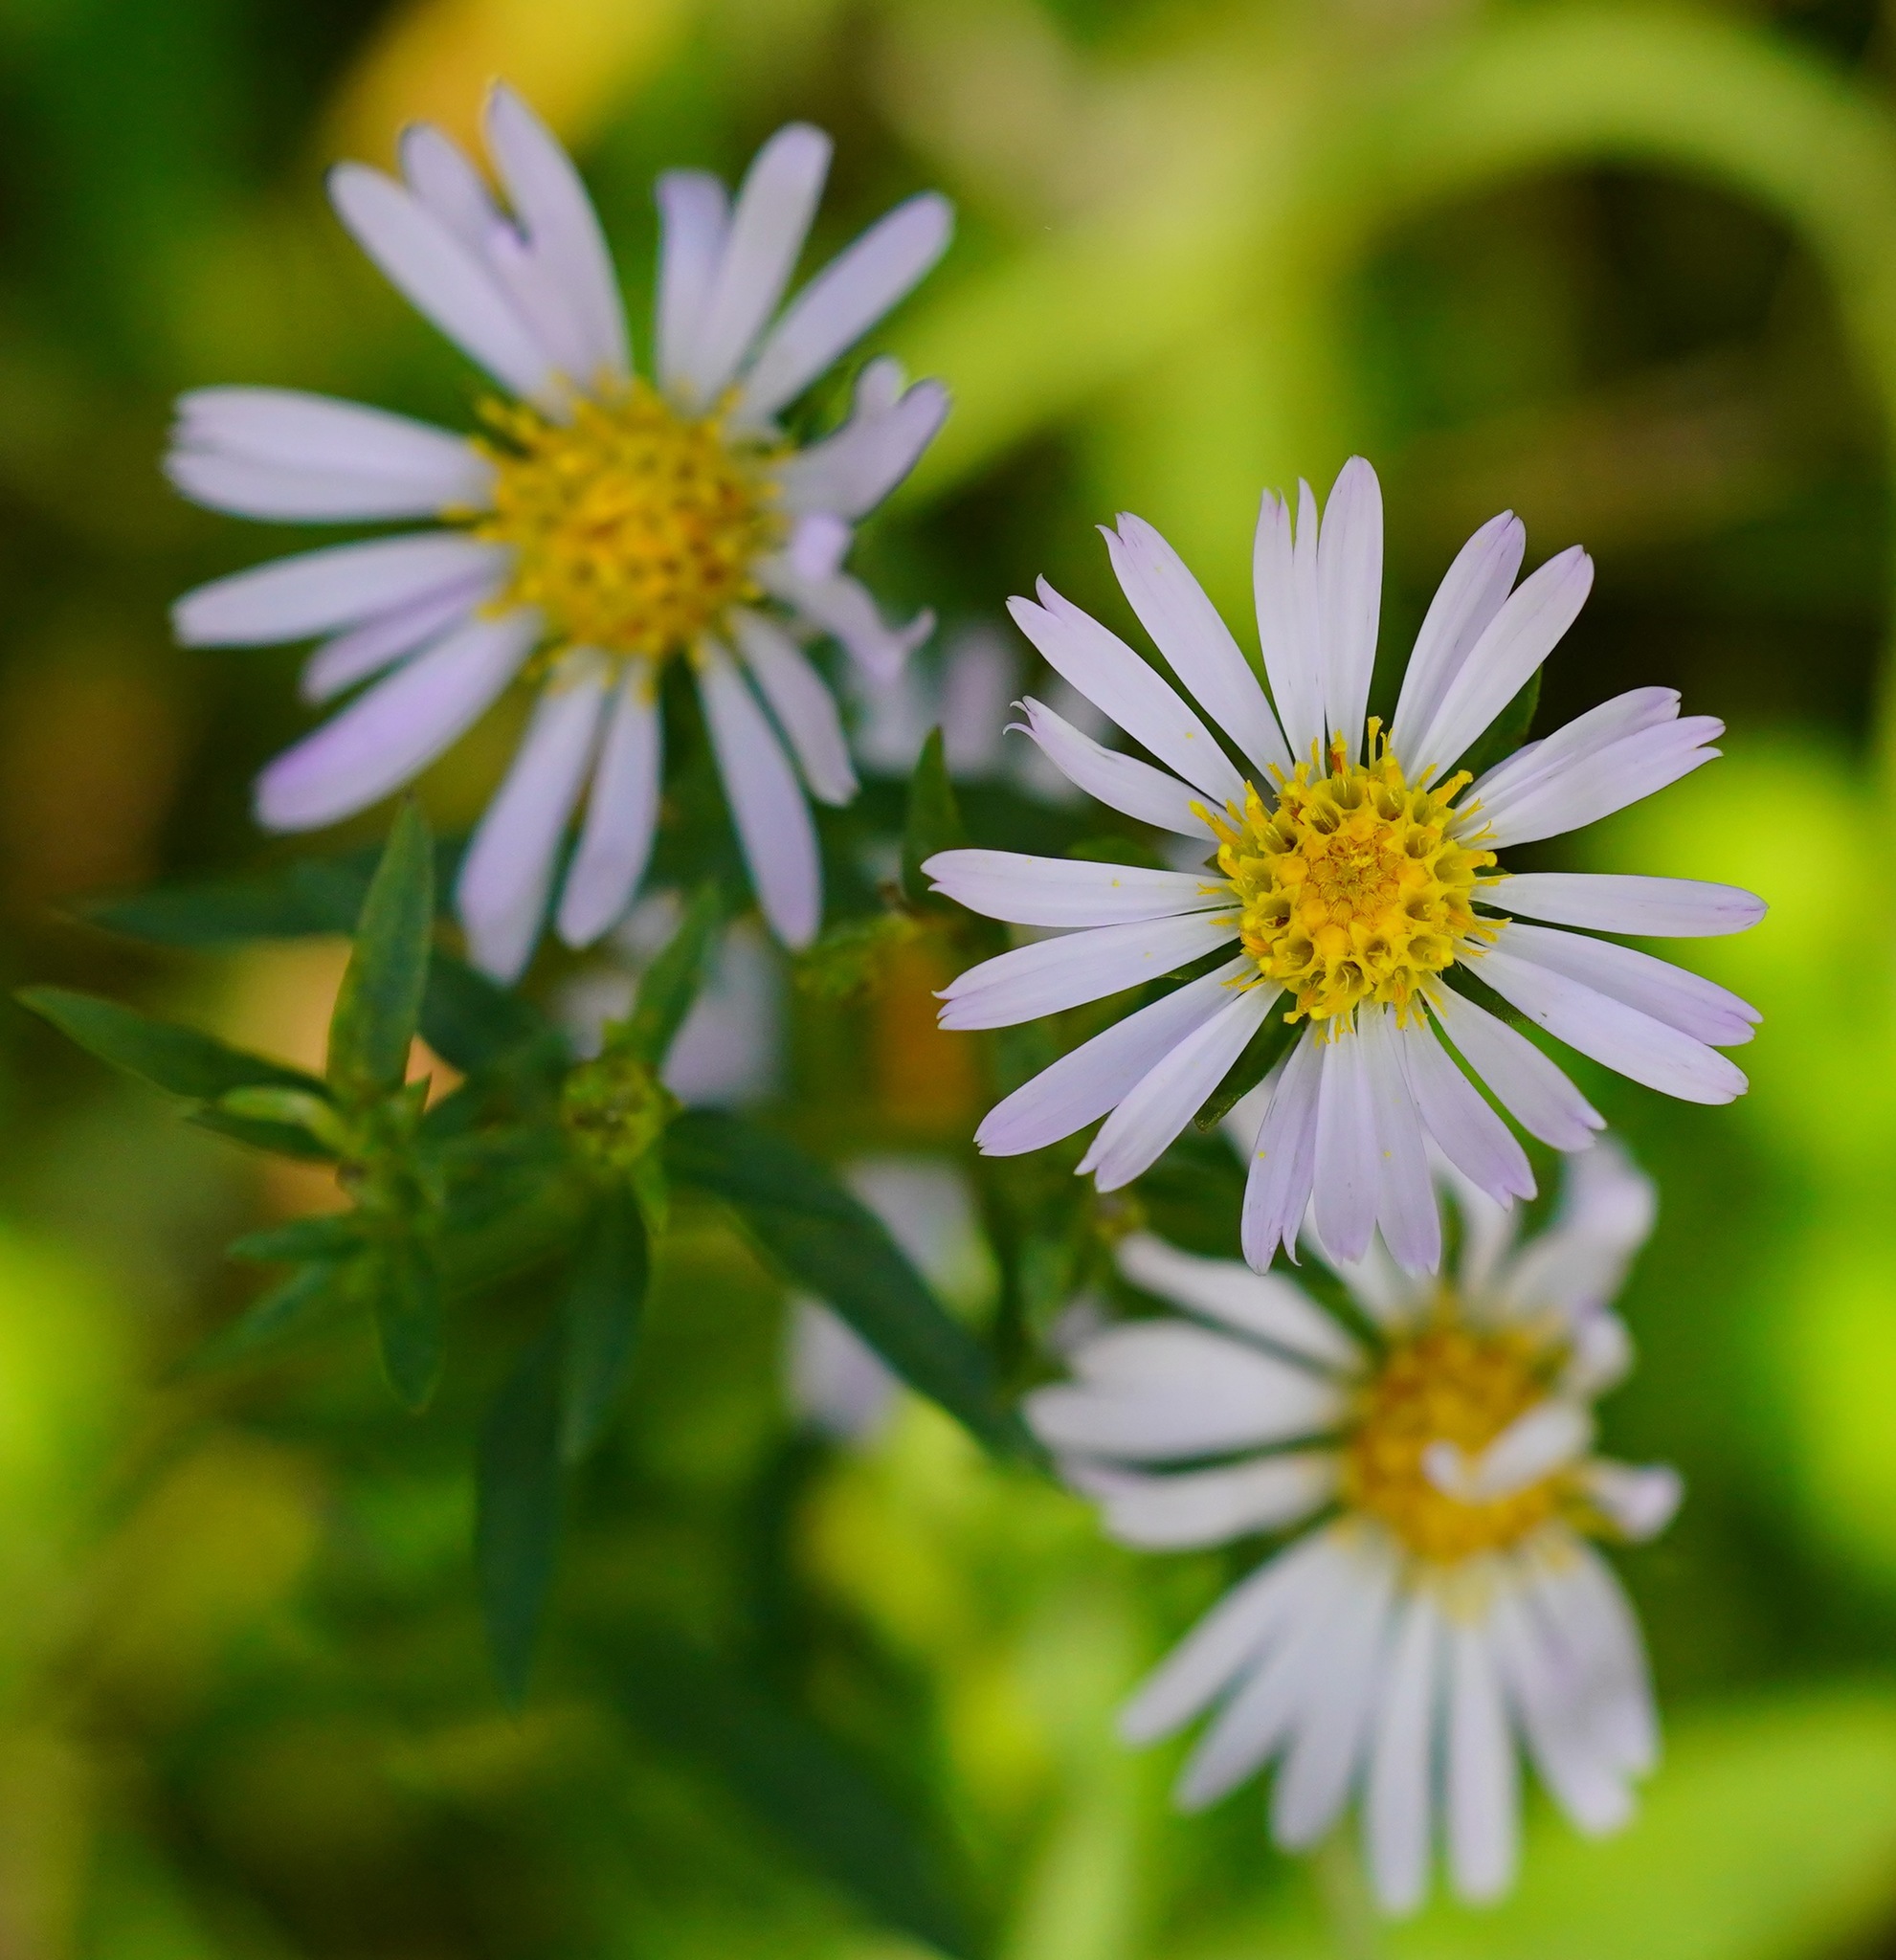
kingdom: Plantae
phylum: Tracheophyta
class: Magnoliopsida
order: Asterales
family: Asteraceae
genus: Symphyotrichum
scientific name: Symphyotrichum chilense
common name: Pacific aster
